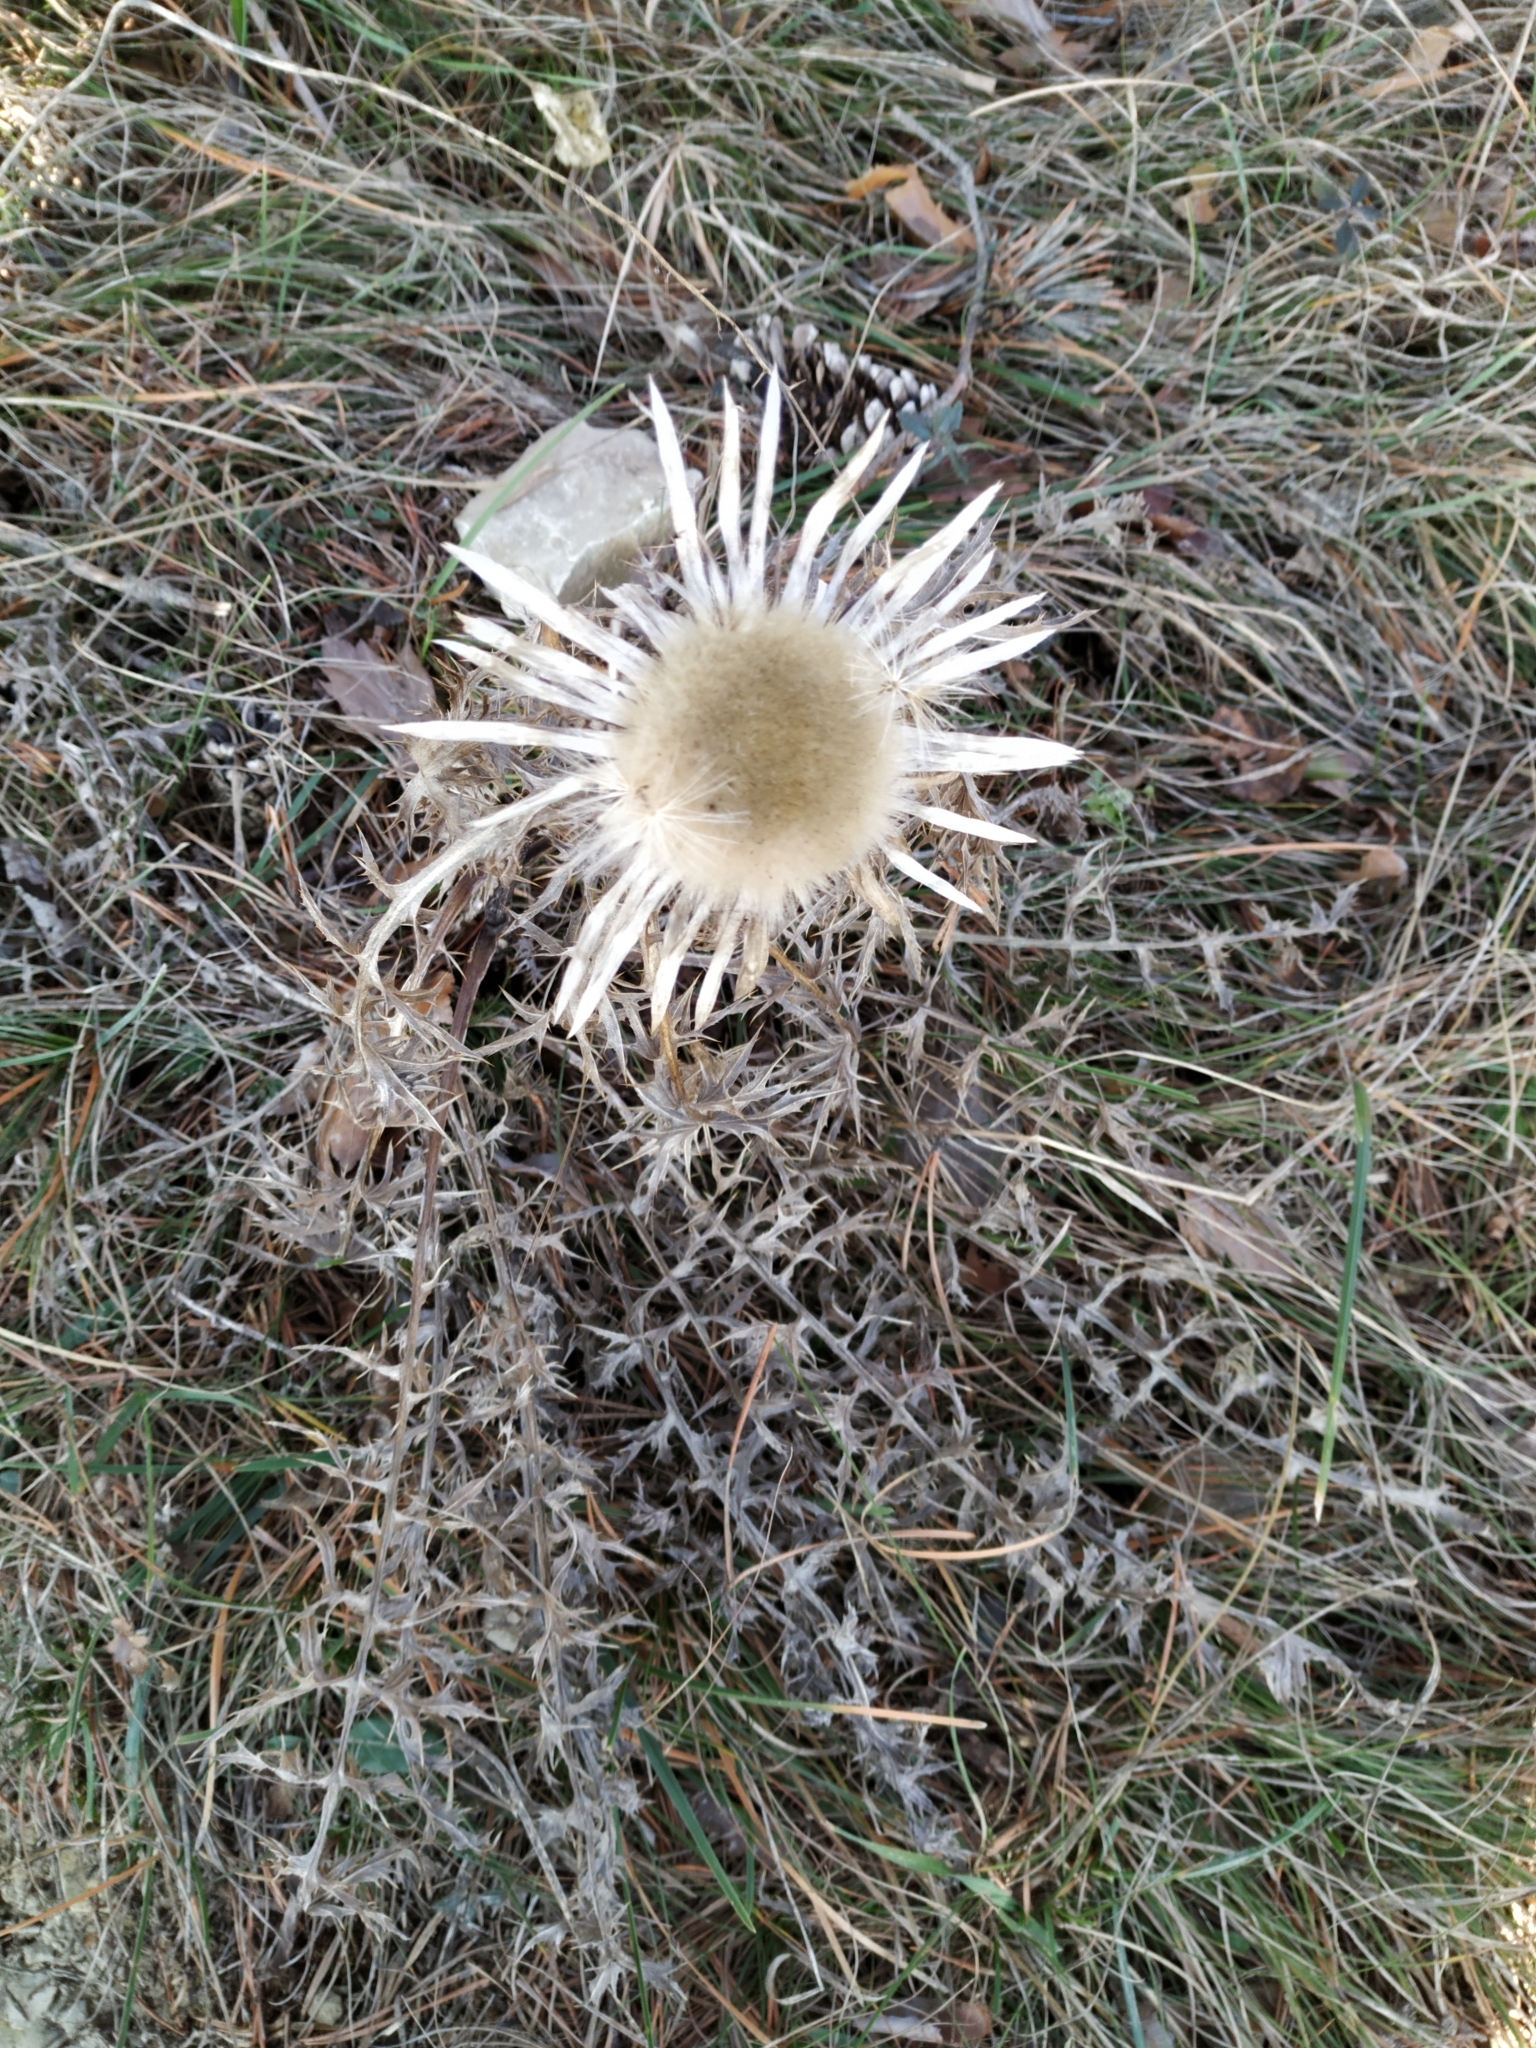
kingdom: Plantae
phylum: Tracheophyta
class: Magnoliopsida
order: Asterales
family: Asteraceae
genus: Carlina
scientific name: Carlina acaulis
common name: Stemless carline thistle
